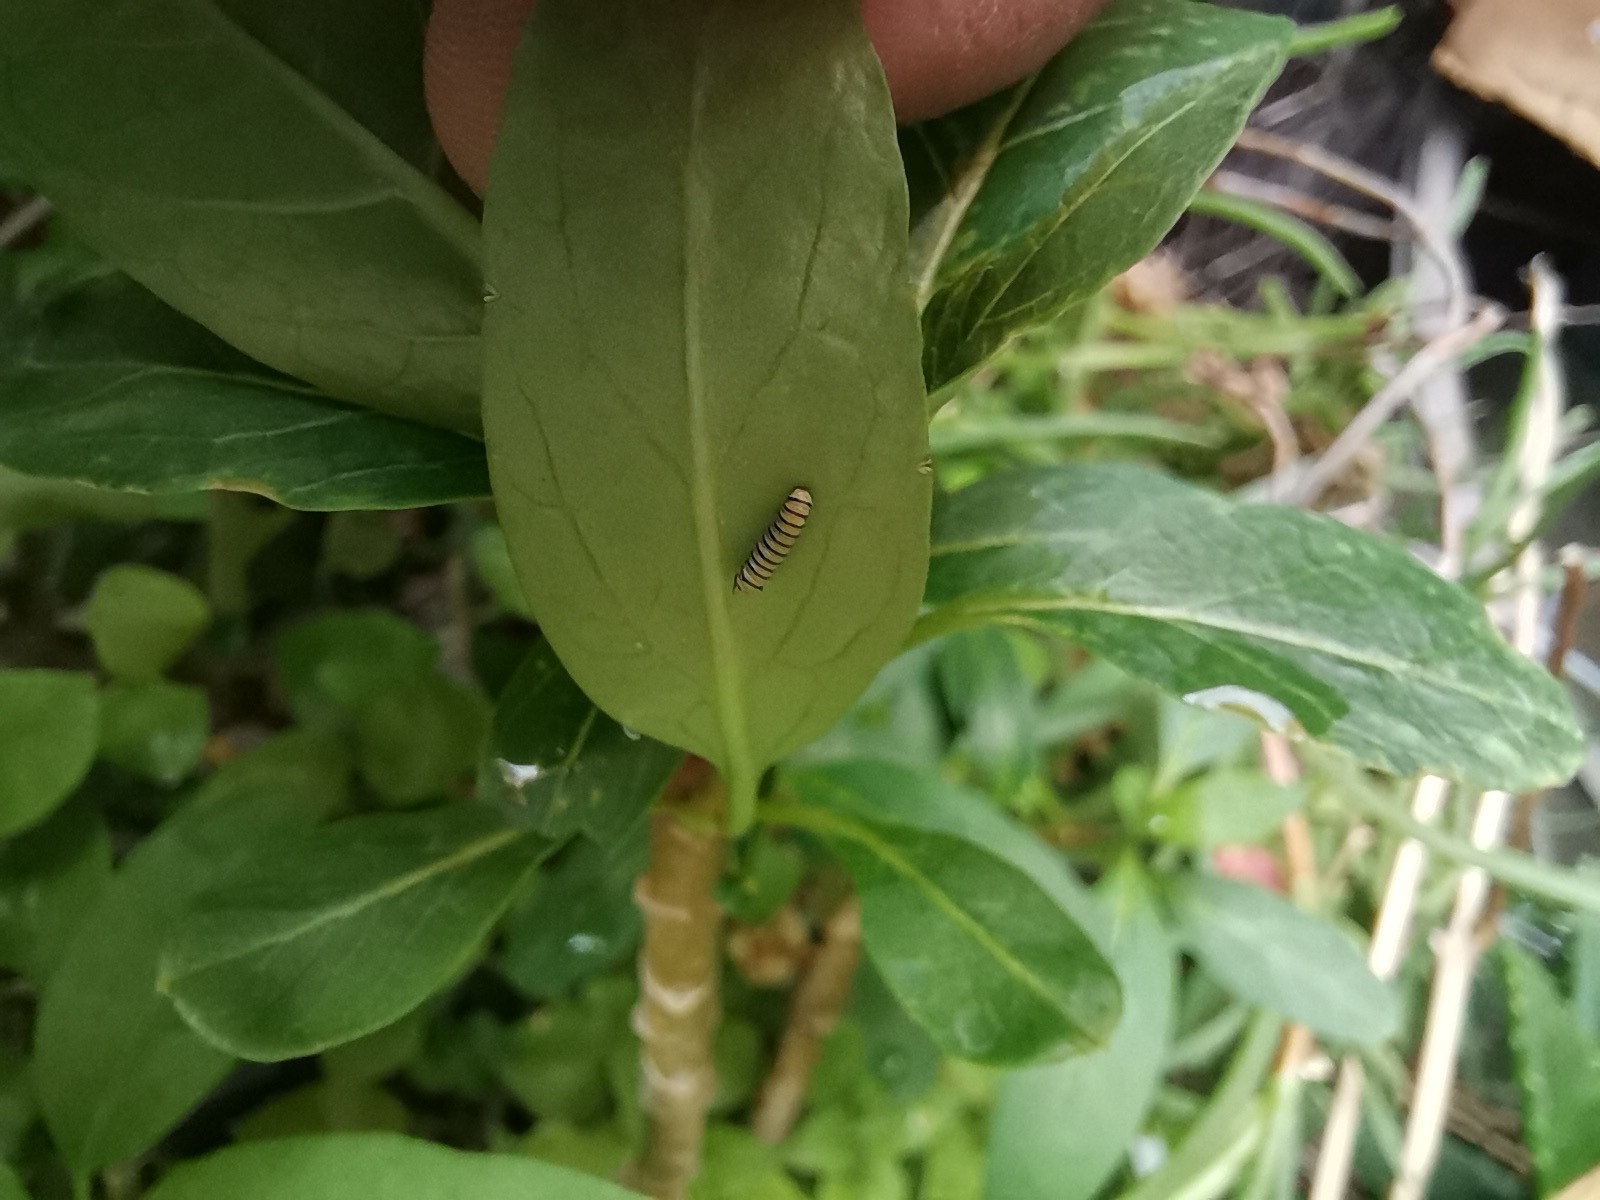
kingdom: Animalia
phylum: Arthropoda
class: Insecta
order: Lepidoptera
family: Nymphalidae
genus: Danaus
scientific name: Danaus plexippus
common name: Monarch
